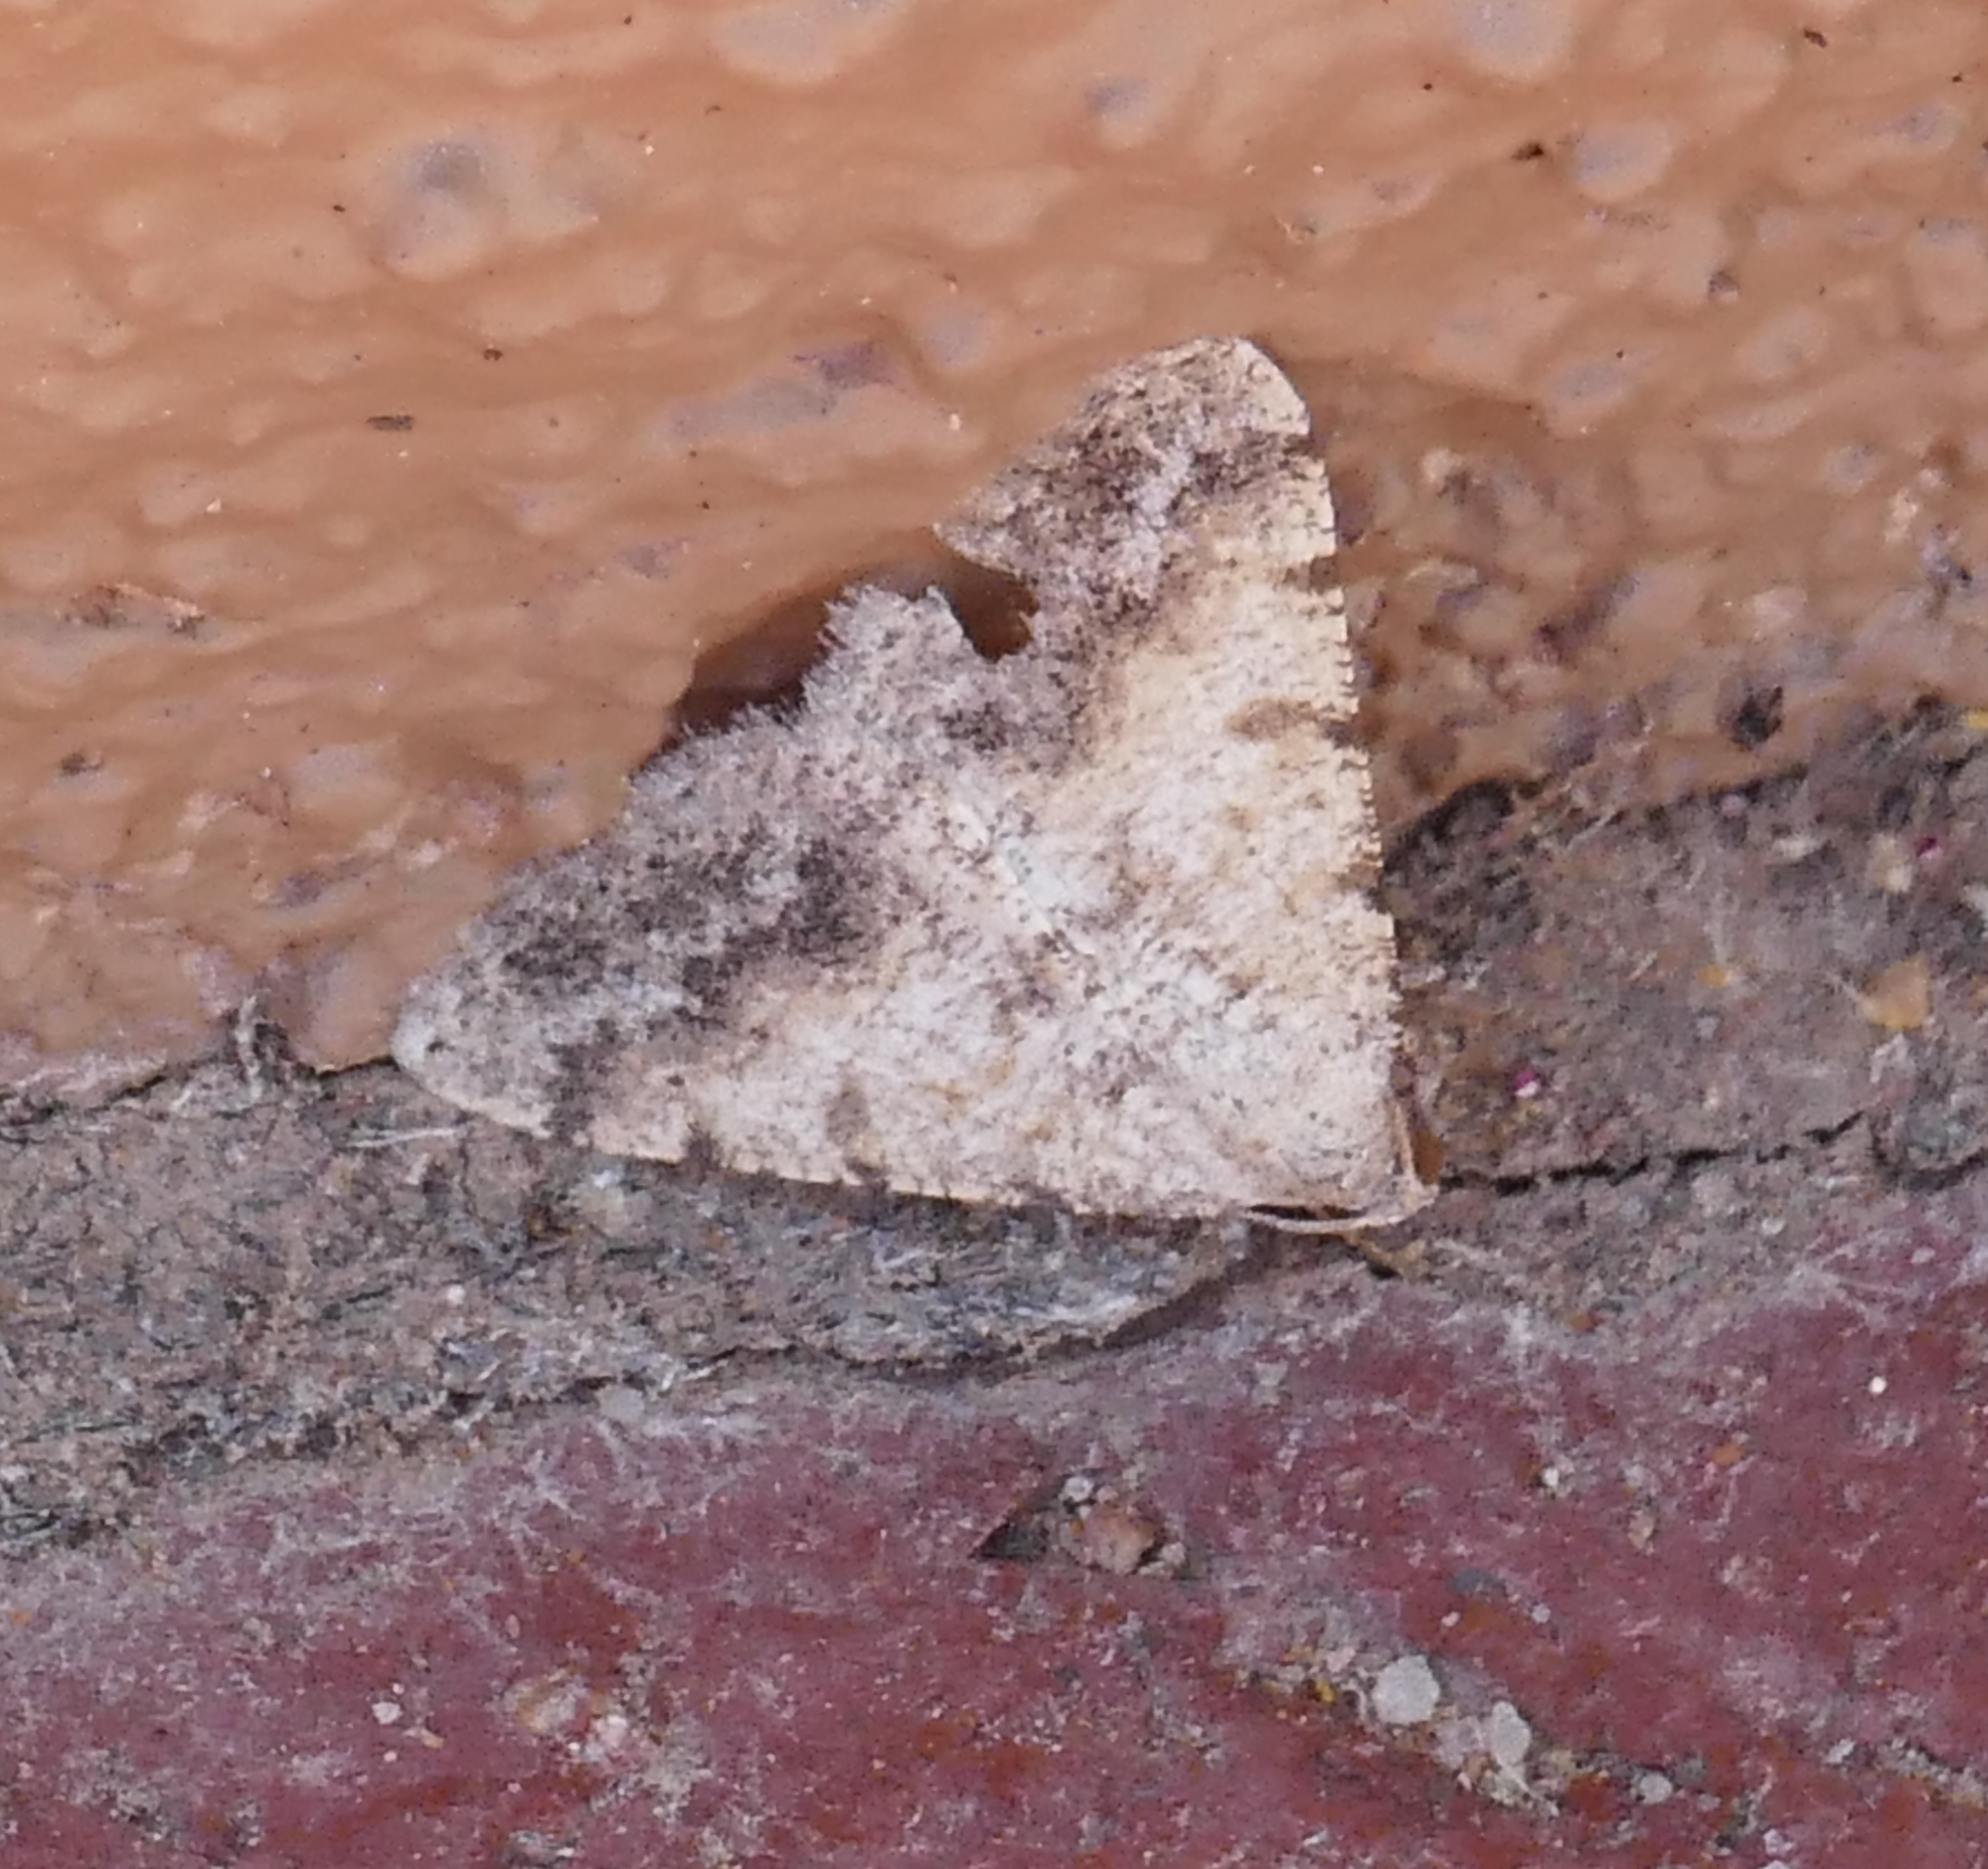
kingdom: Animalia
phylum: Arthropoda
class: Insecta
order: Lepidoptera
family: Geometridae
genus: Digrammia
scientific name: Digrammia colorata
